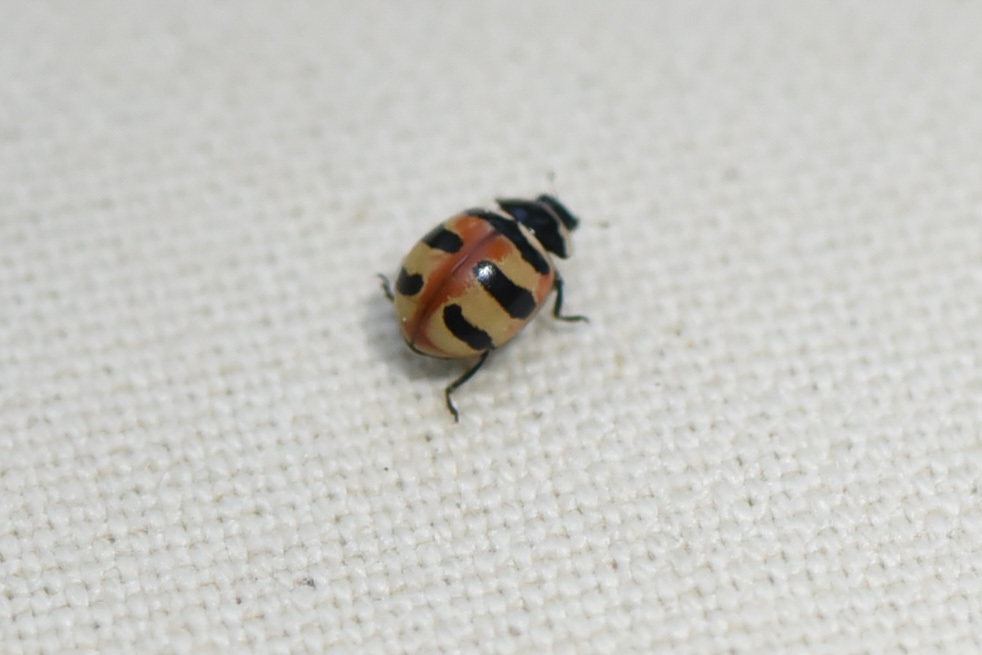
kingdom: Animalia
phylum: Arthropoda
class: Insecta
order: Coleoptera
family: Coccinellidae
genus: Coccinella
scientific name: Coccinella trifasciata
